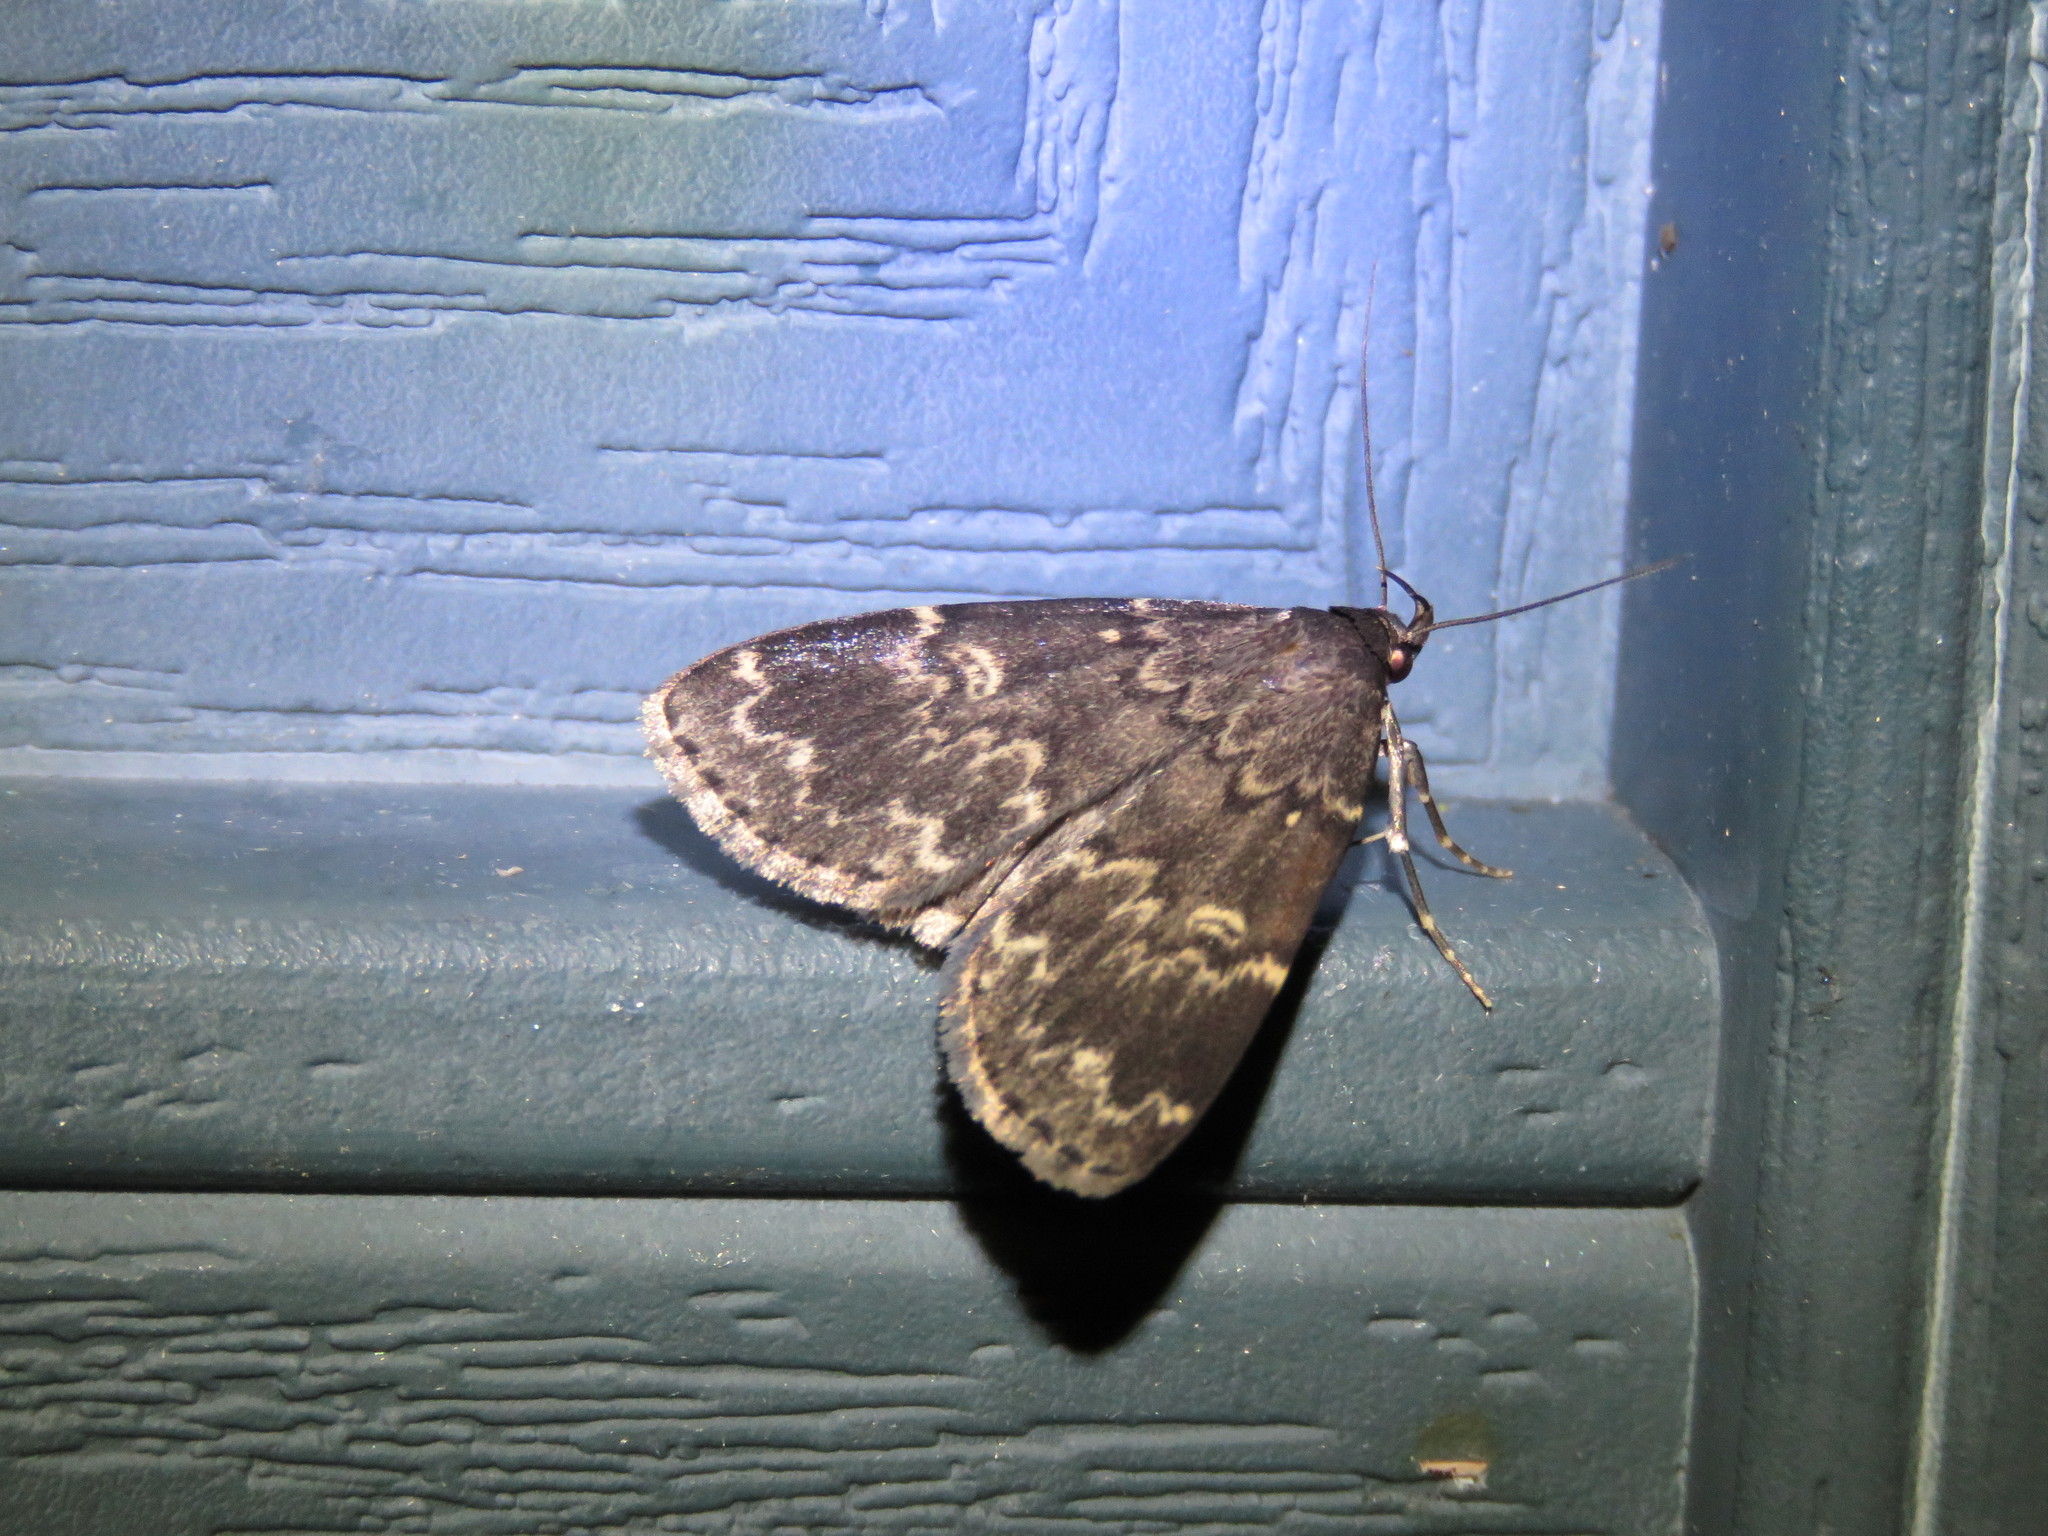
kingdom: Animalia
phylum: Arthropoda
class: Insecta
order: Lepidoptera
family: Erebidae
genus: Idia
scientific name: Idia lubricalis
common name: Twin-striped tabby
